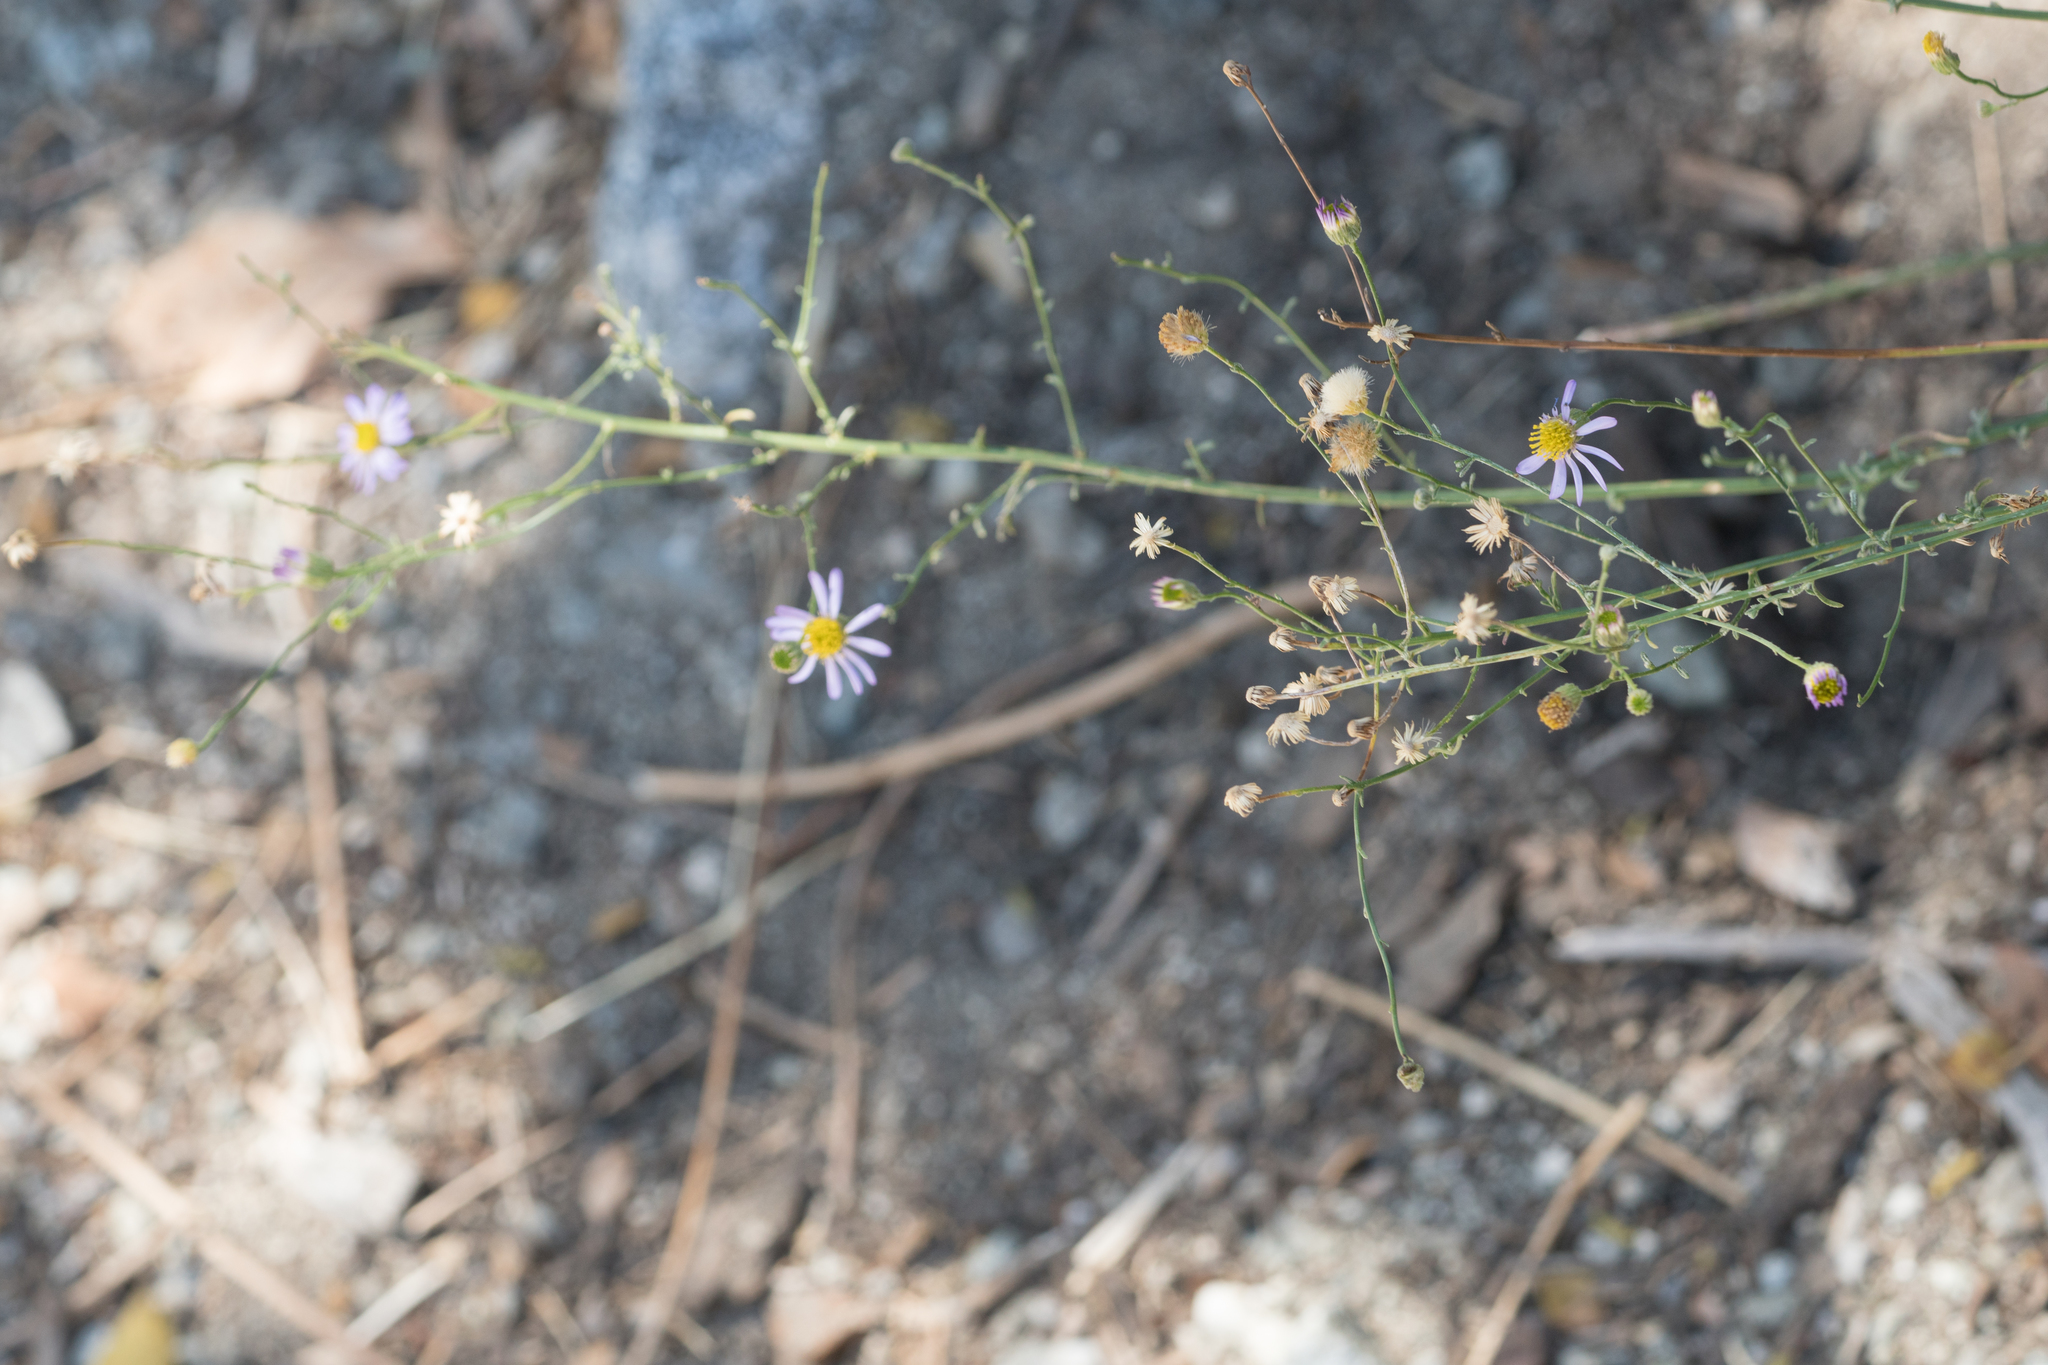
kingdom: Plantae
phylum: Tracheophyta
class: Magnoliopsida
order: Asterales
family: Asteraceae
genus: Corethrogyne
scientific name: Corethrogyne filaginifolia
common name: Sand-aster
